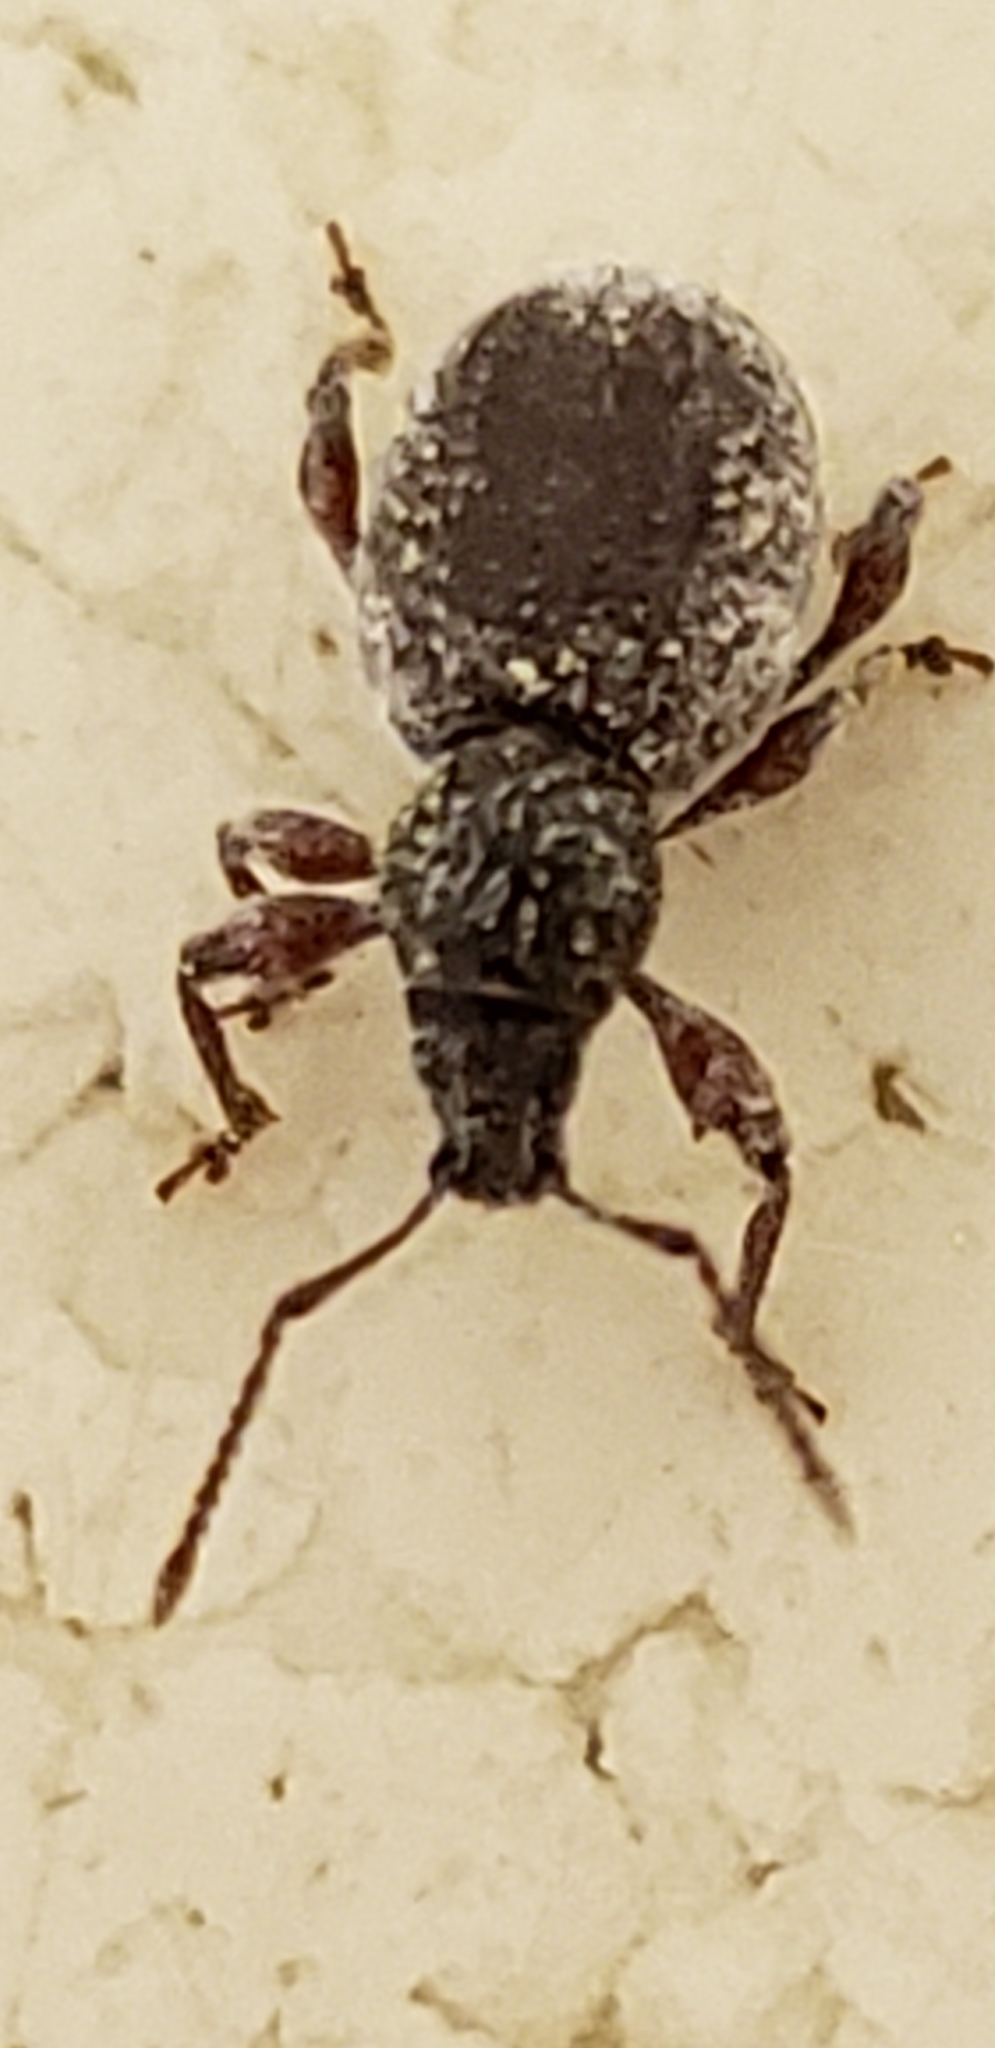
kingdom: Animalia
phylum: Arthropoda
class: Insecta
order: Coleoptera
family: Curculionidae
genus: Otiorhynchus
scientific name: Otiorhynchus ovatus
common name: Strawberry root weevil
